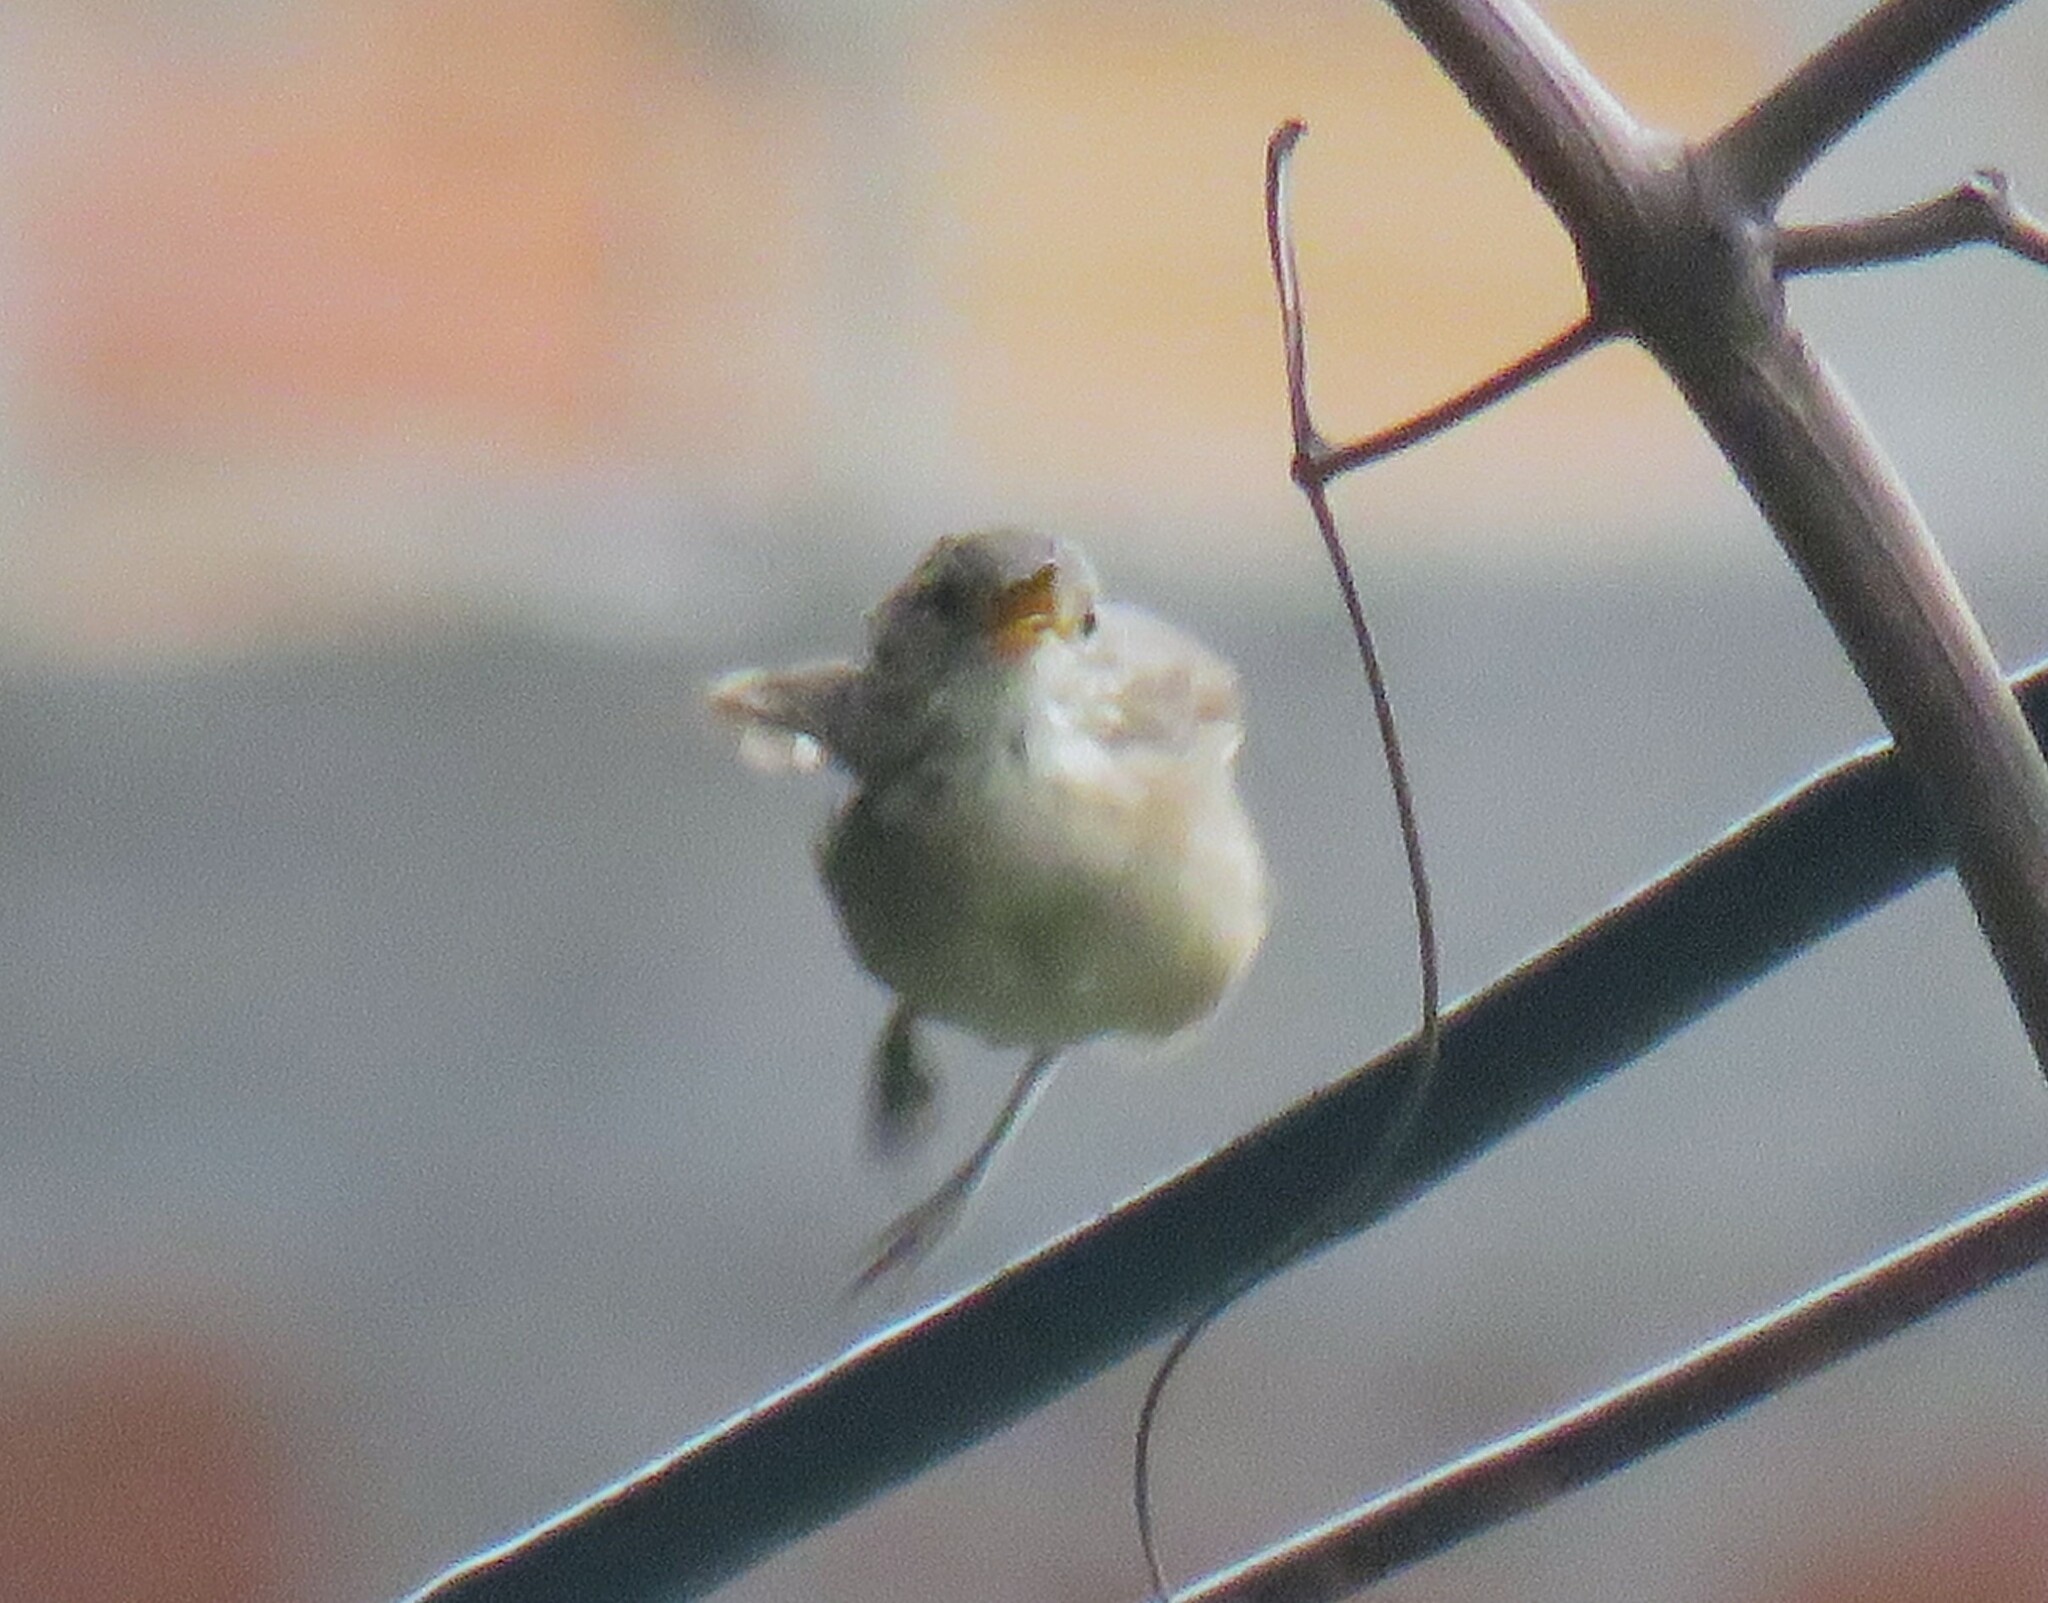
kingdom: Animalia
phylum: Chordata
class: Aves
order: Passeriformes
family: Troglodytidae
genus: Troglodytes
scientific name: Troglodytes aedon
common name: House wren
